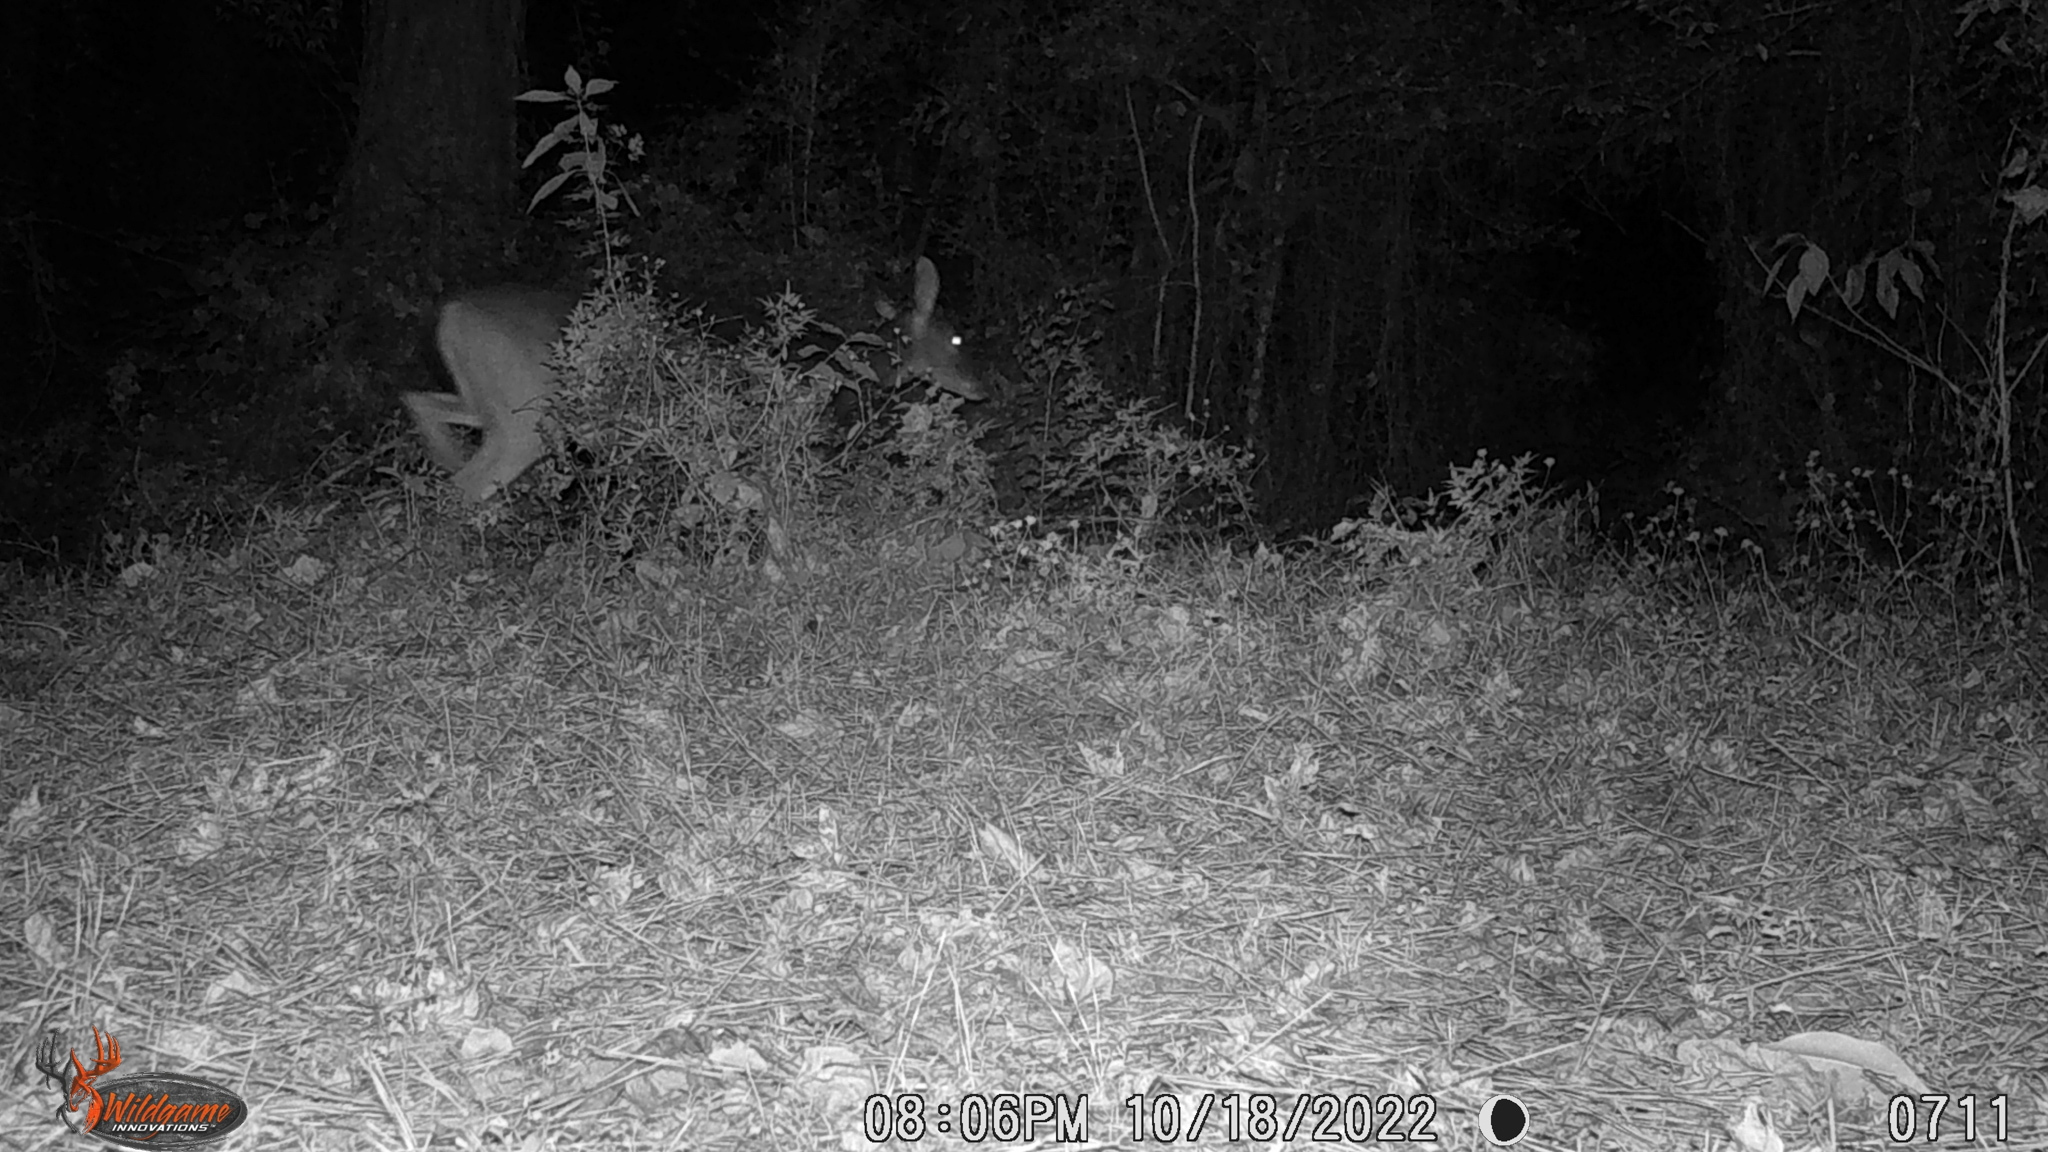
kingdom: Animalia
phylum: Chordata
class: Mammalia
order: Artiodactyla
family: Cervidae
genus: Odocoileus
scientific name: Odocoileus virginianus
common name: White-tailed deer
